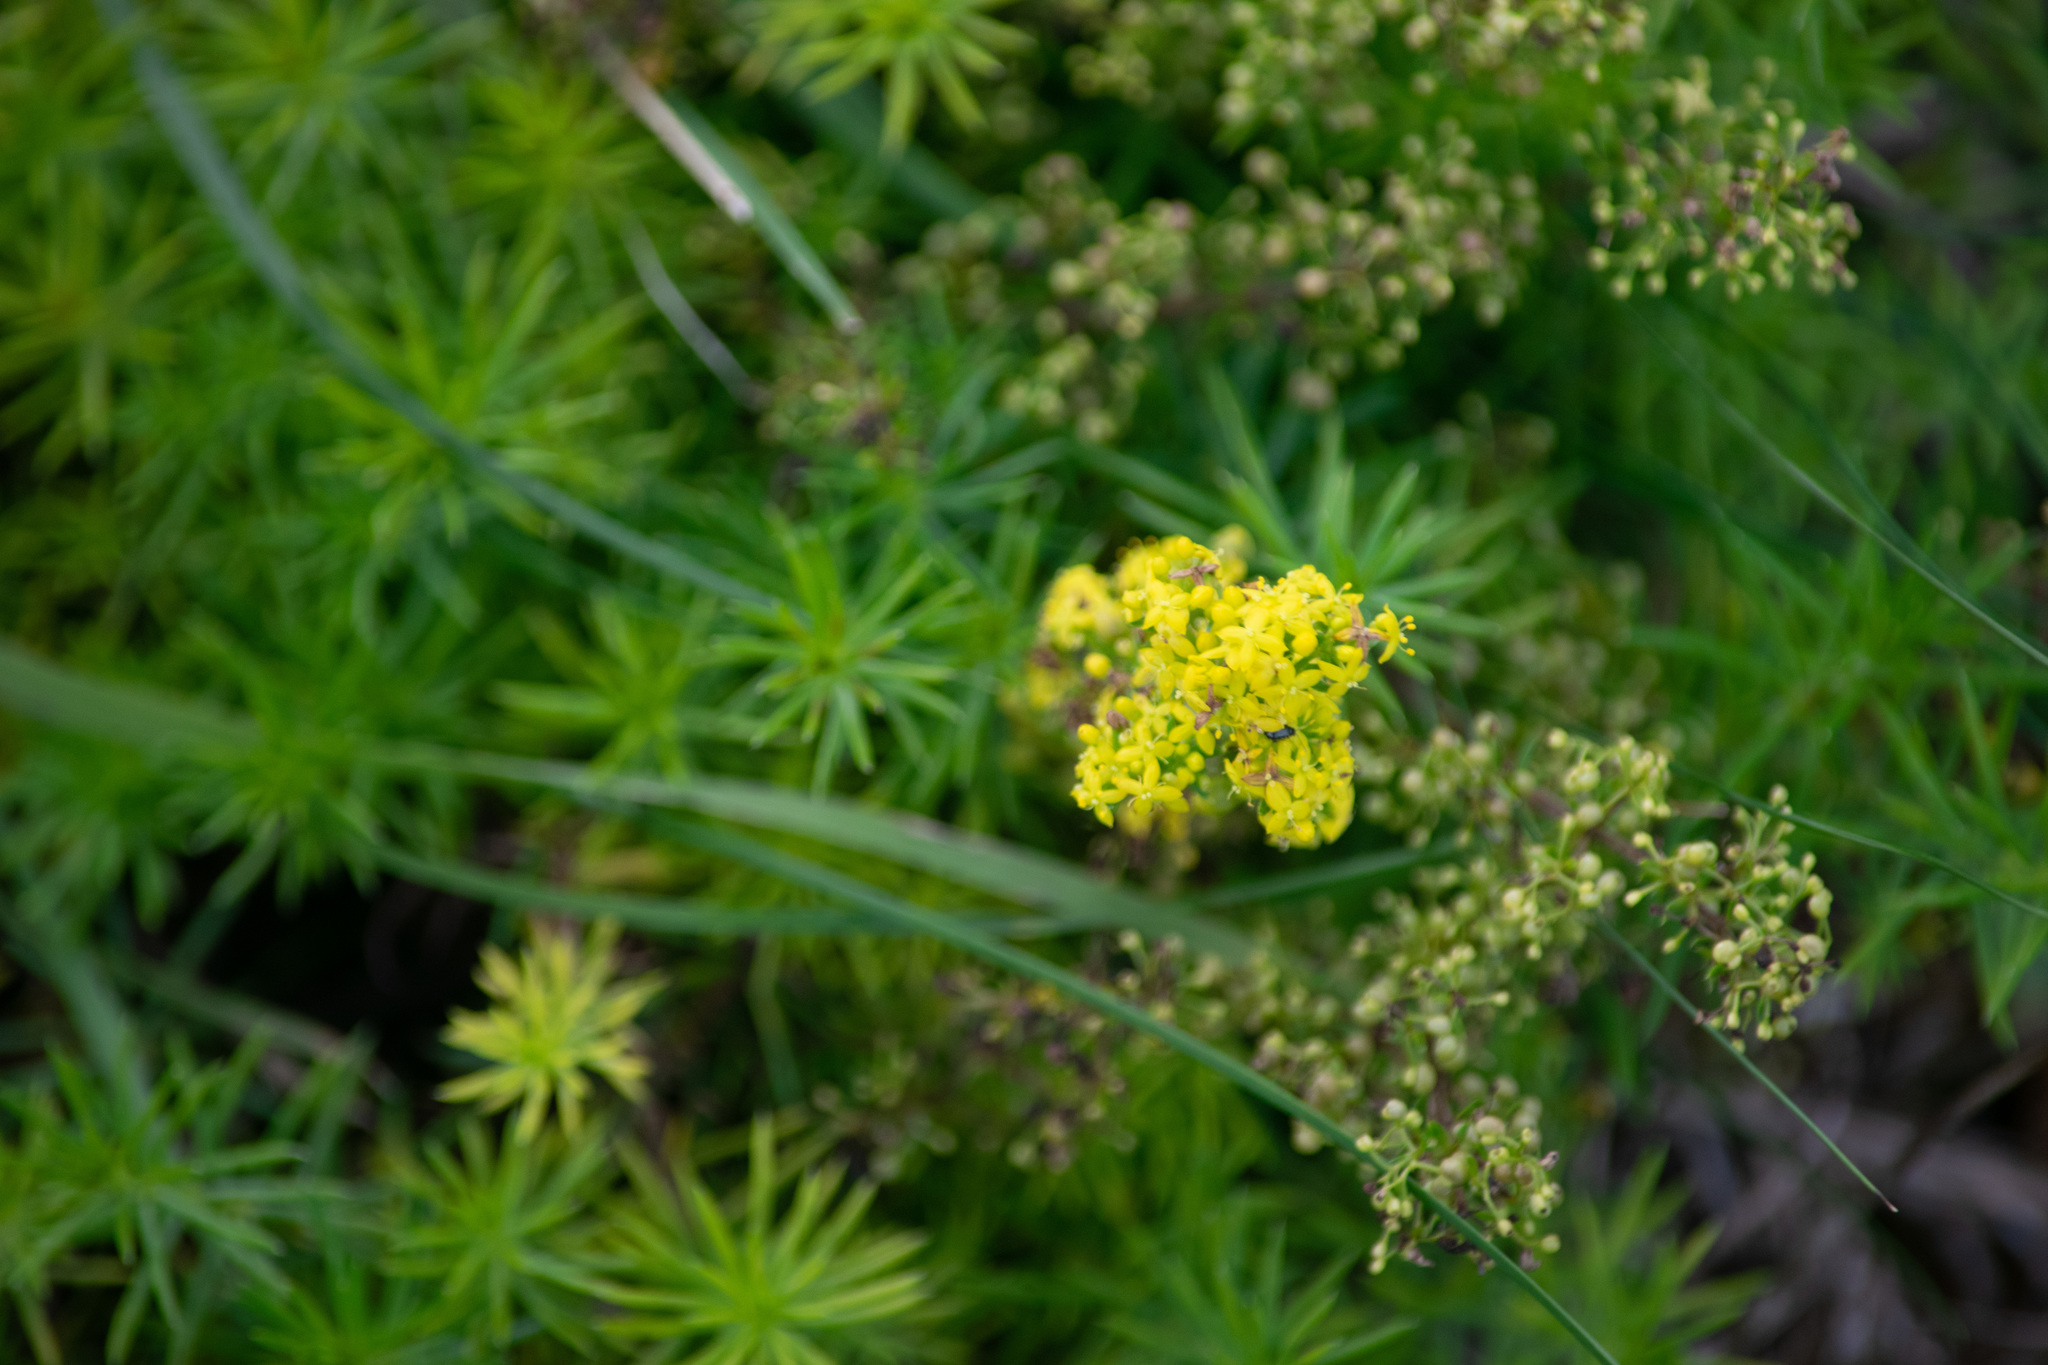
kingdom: Plantae
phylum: Tracheophyta
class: Magnoliopsida
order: Gentianales
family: Rubiaceae
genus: Galium
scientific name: Galium verum
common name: Lady's bedstraw
